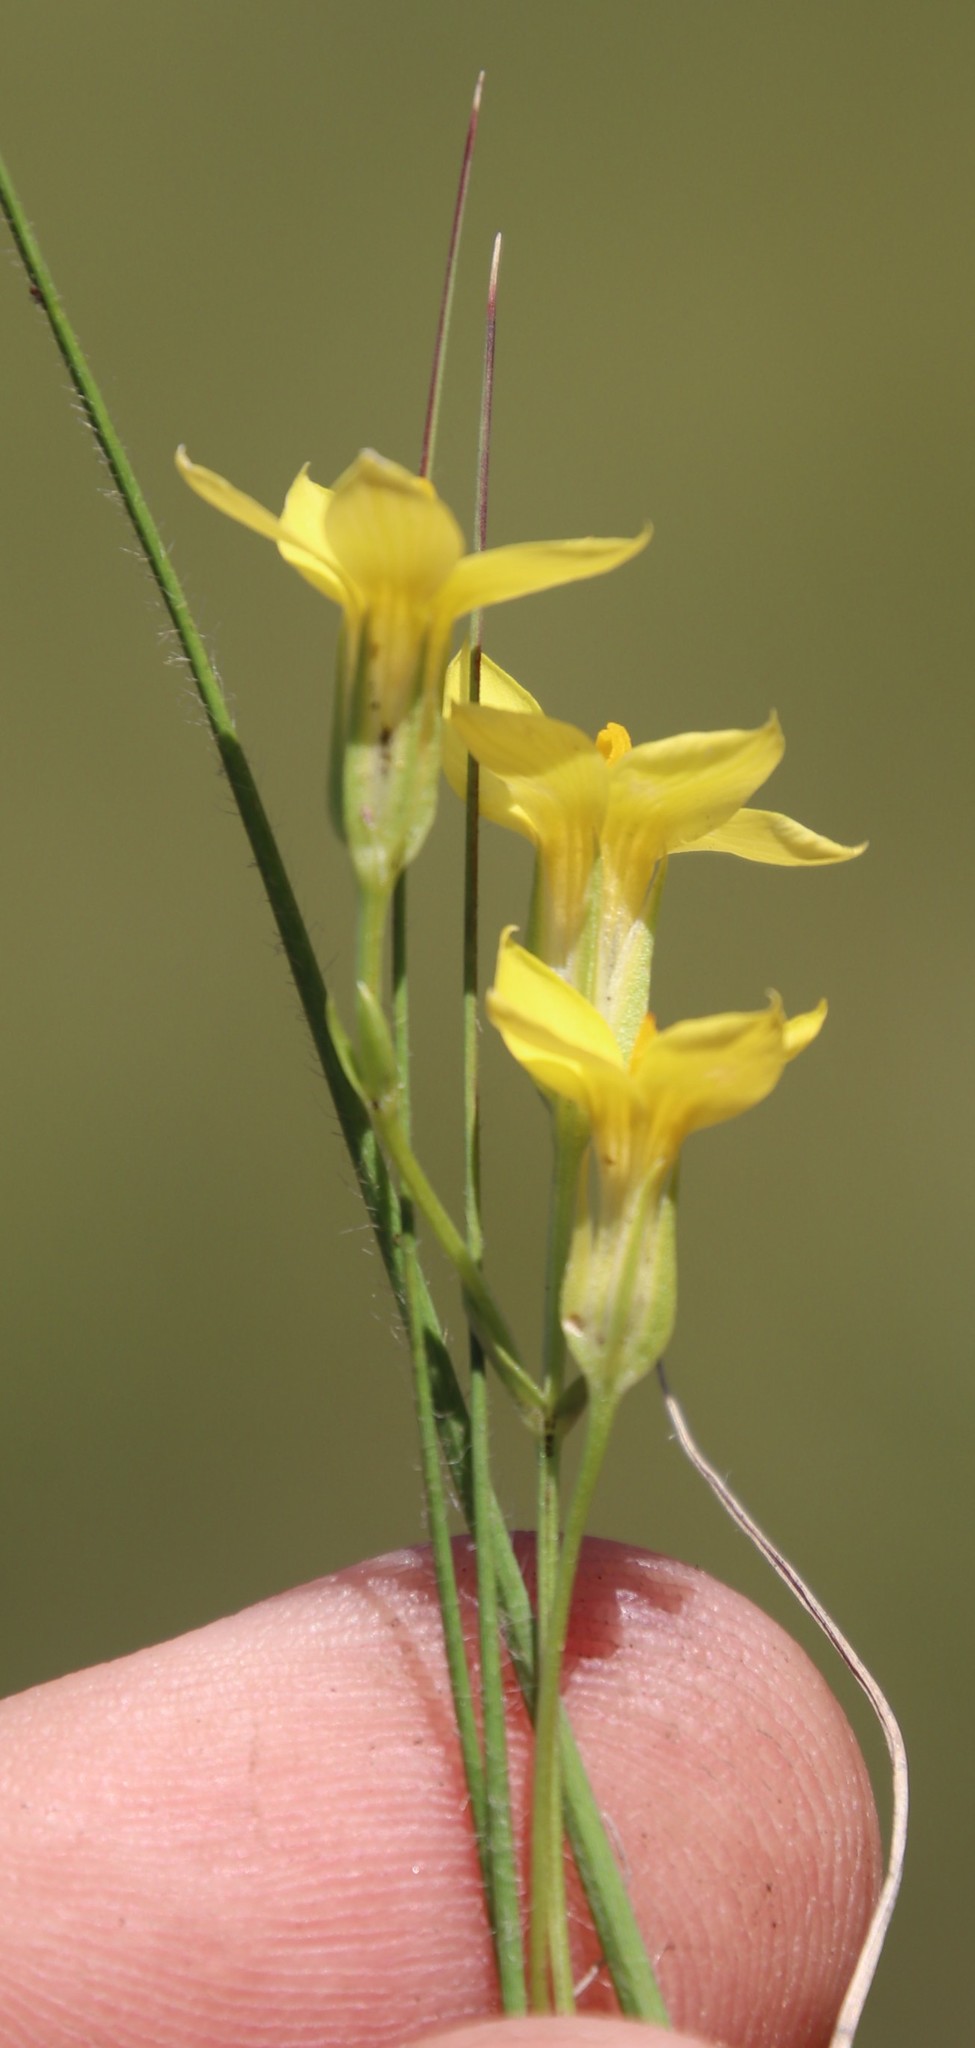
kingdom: Plantae
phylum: Tracheophyta
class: Magnoliopsida
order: Gentianales
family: Gentianaceae
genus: Sebaea
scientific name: Sebaea natalensis
